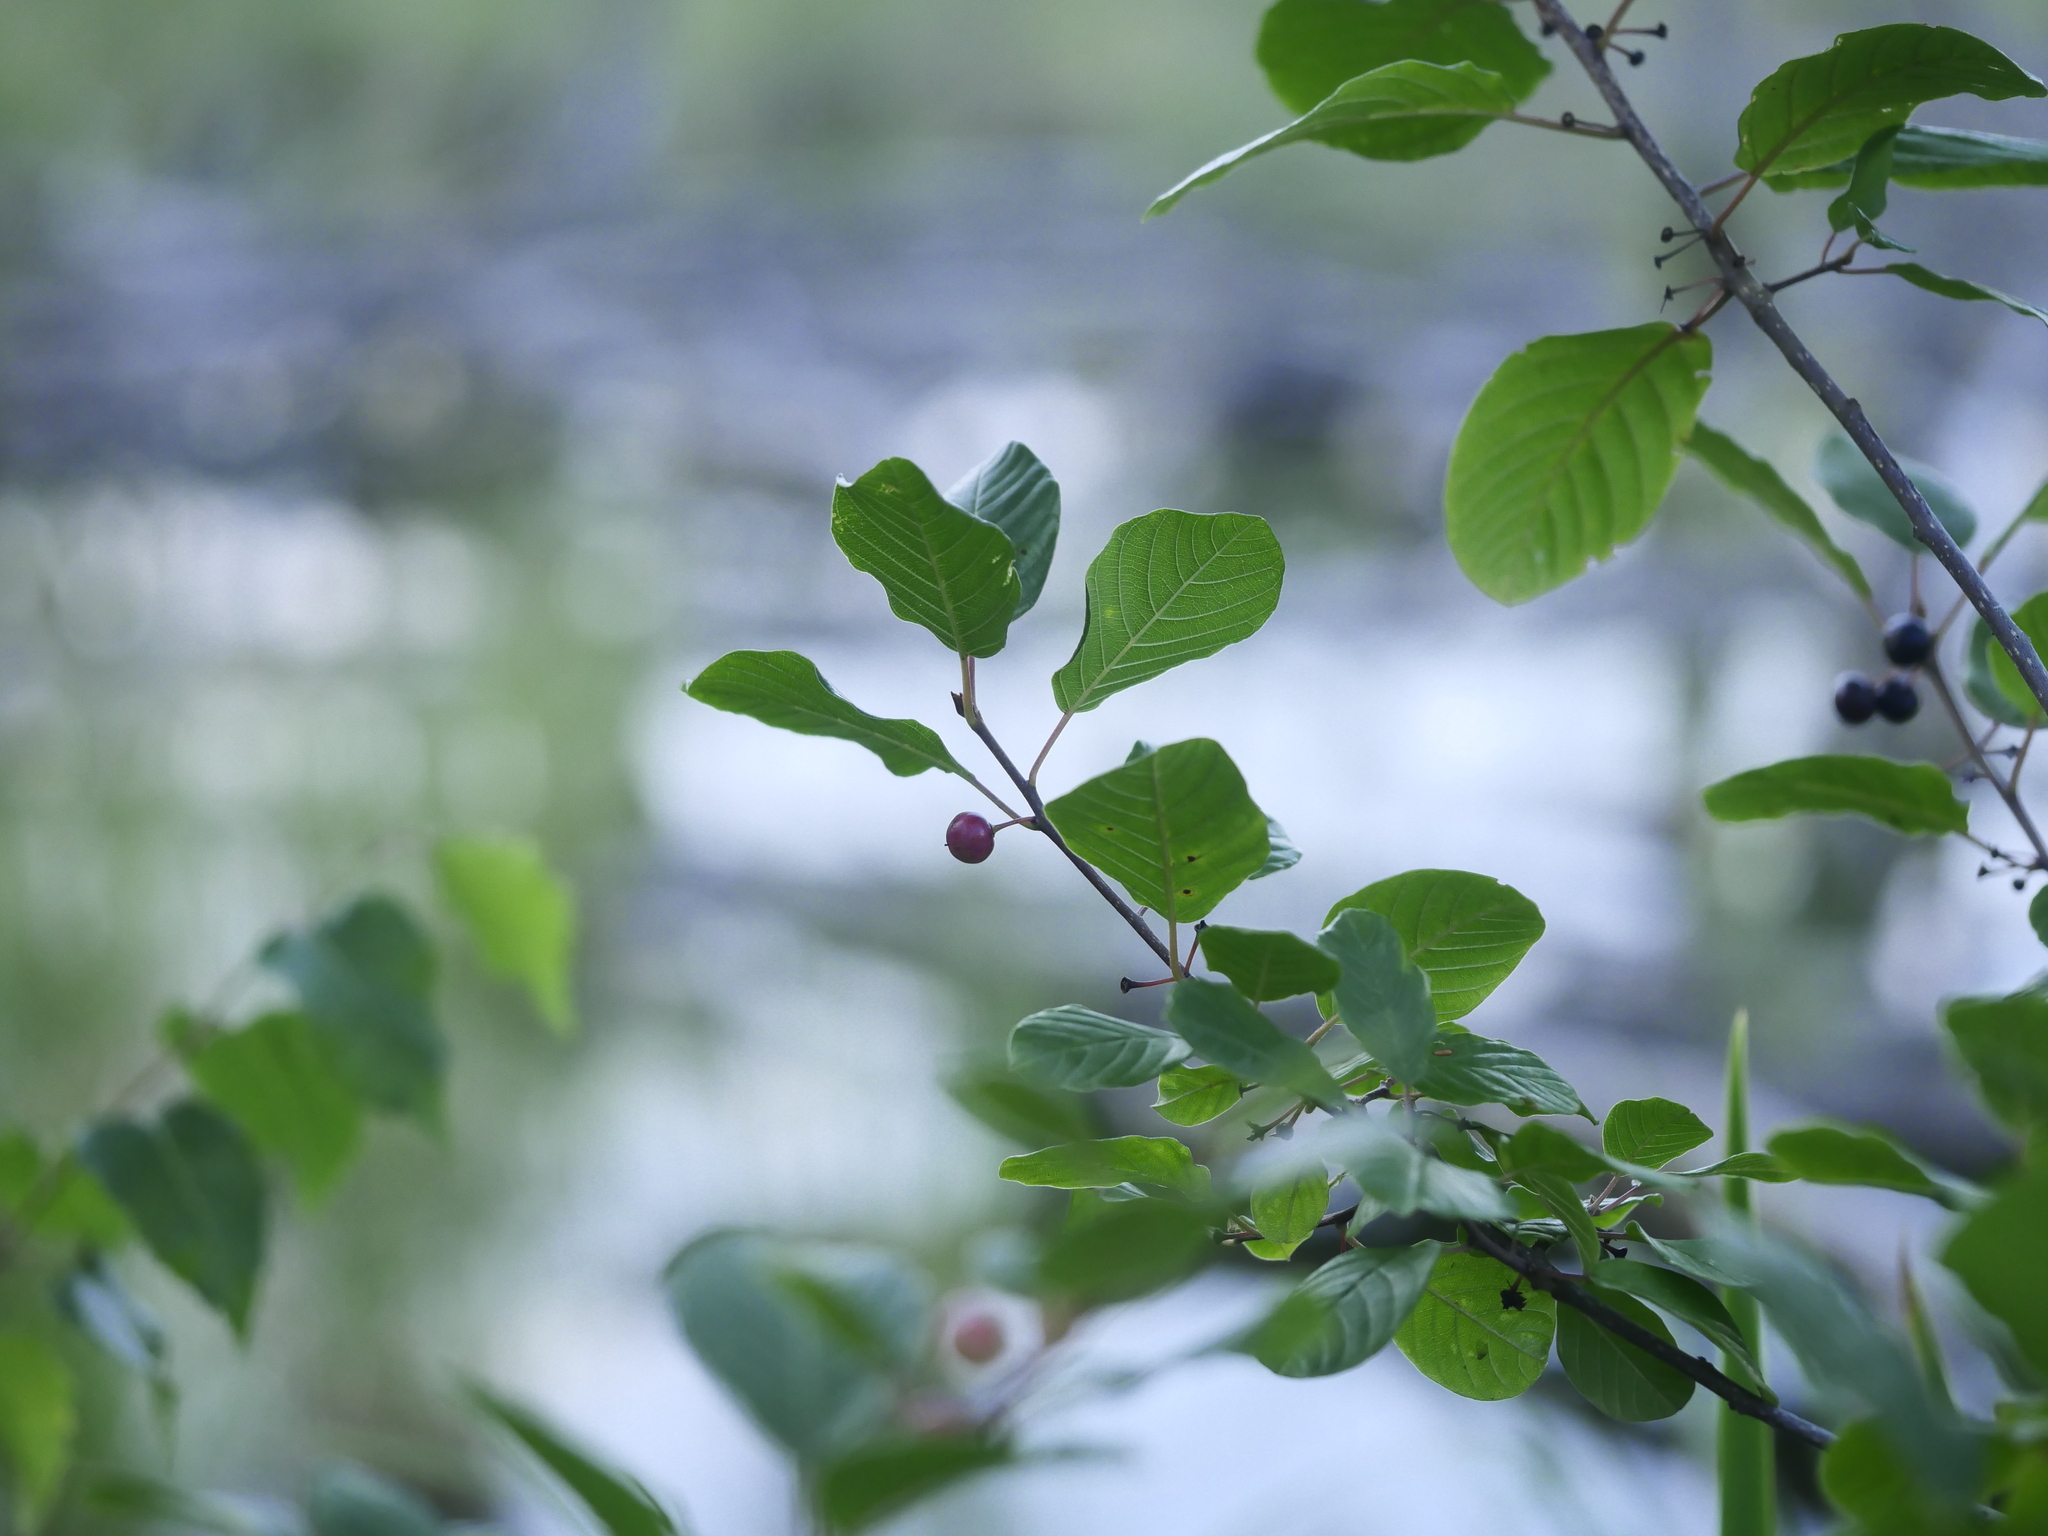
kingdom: Plantae
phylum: Tracheophyta
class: Magnoliopsida
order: Rosales
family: Rhamnaceae
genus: Frangula
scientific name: Frangula alnus
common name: Alder buckthorn
